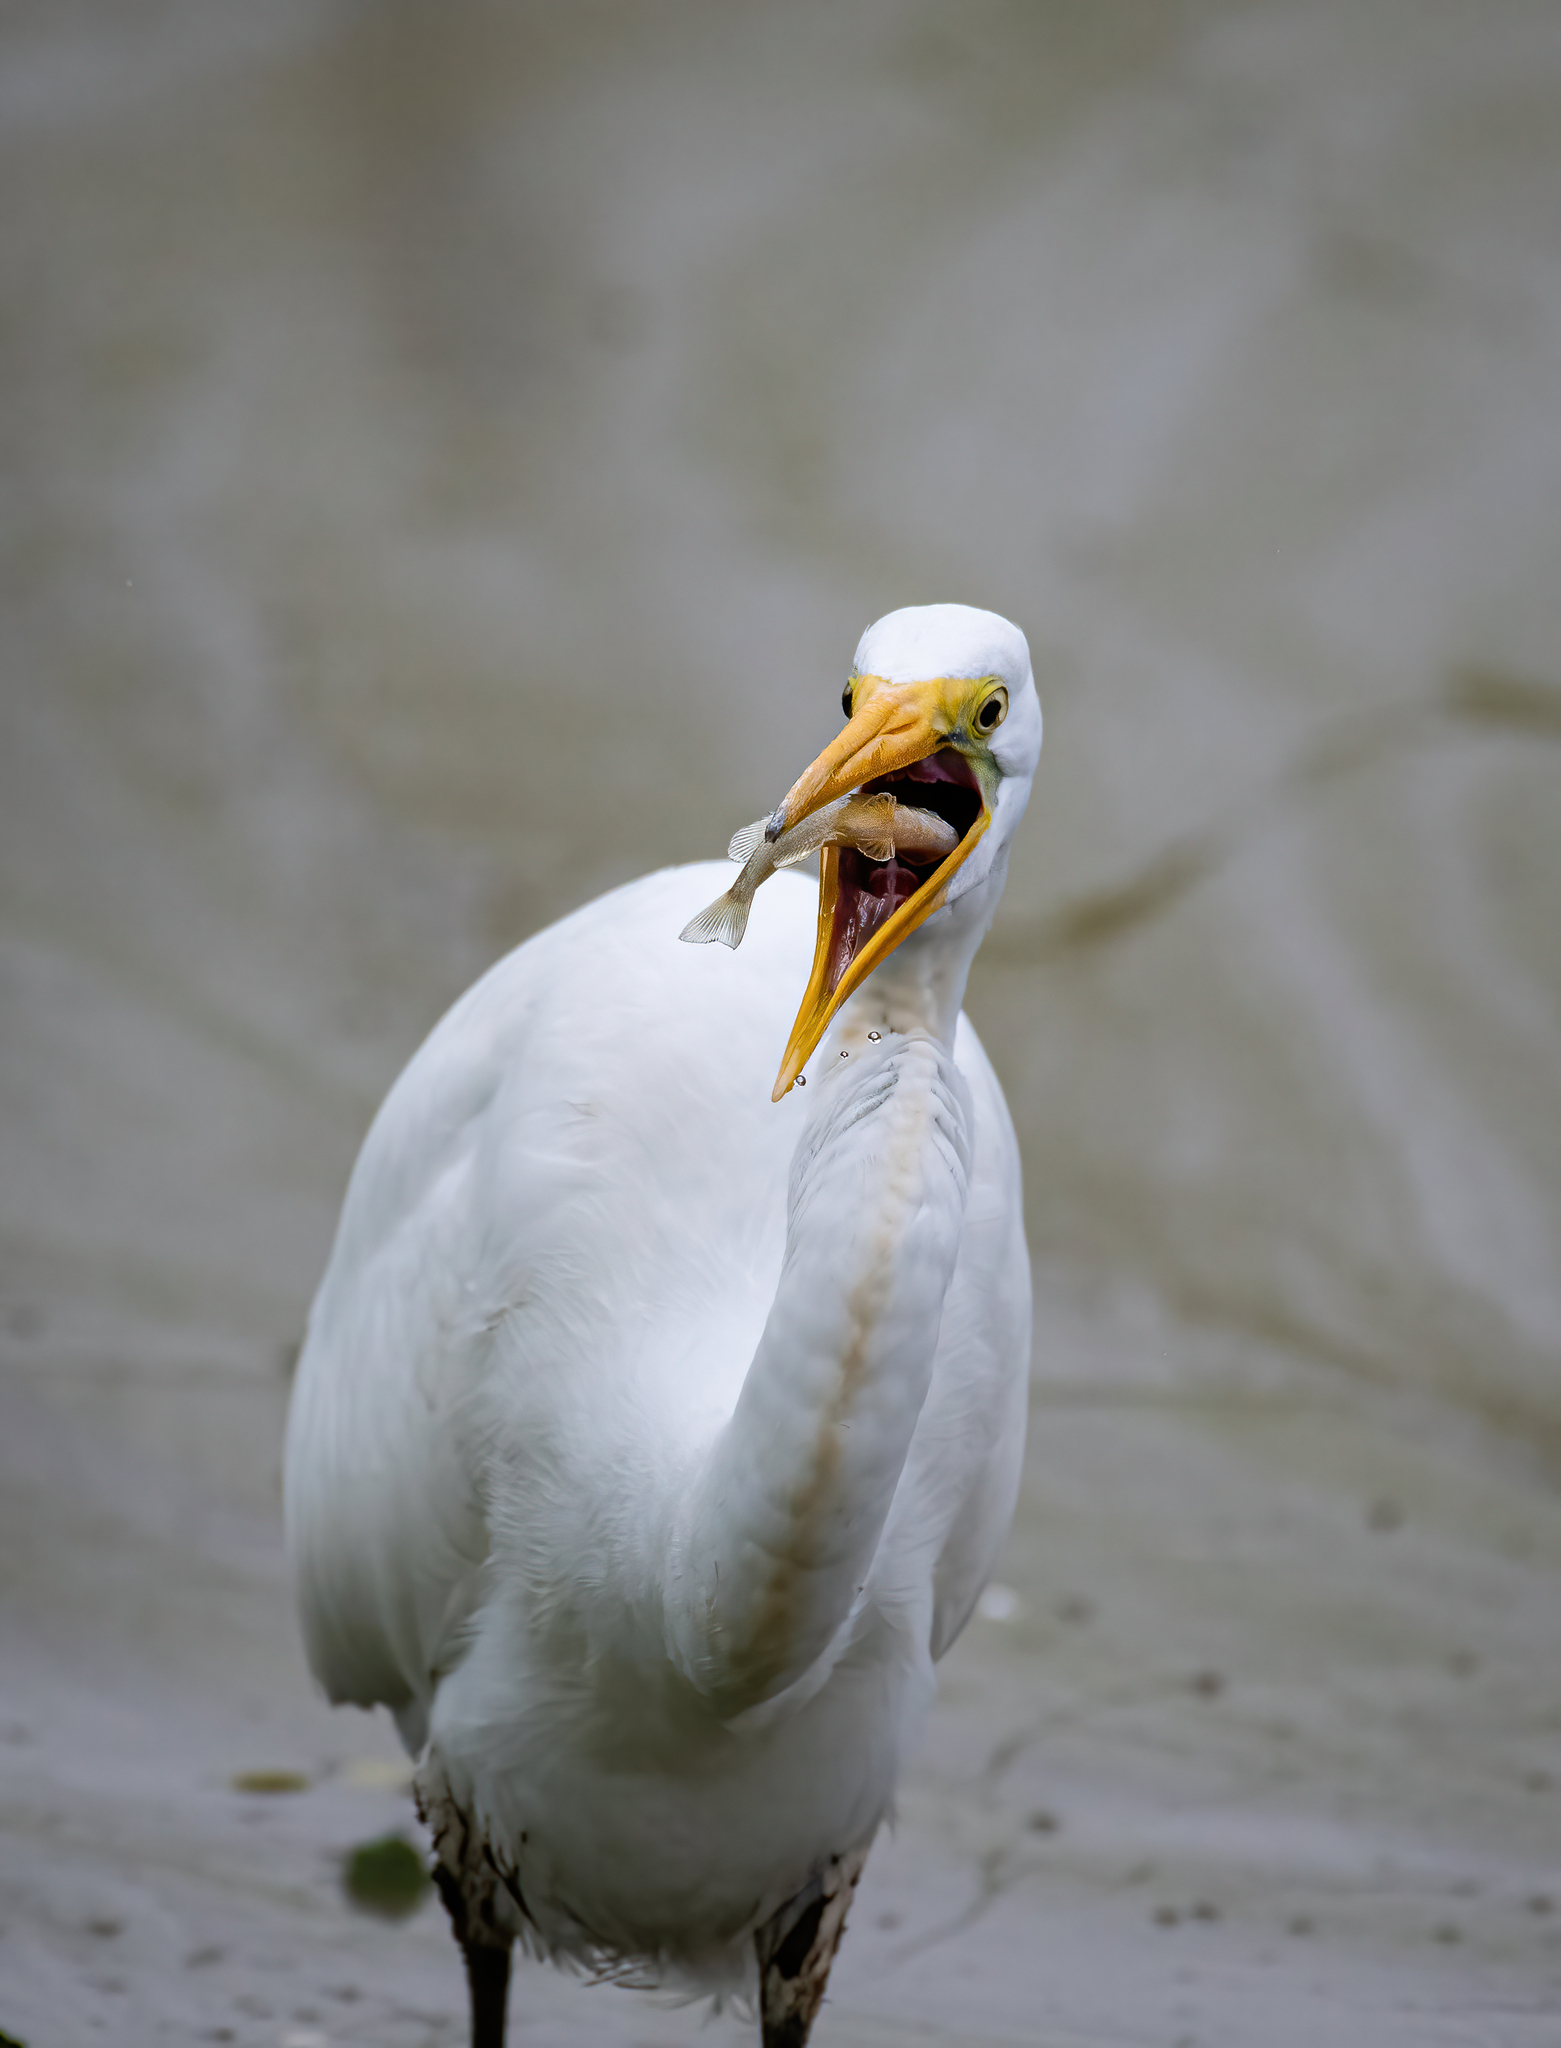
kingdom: Animalia
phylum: Chordata
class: Aves
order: Pelecaniformes
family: Ardeidae
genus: Ardea
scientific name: Ardea alba
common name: Great egret
